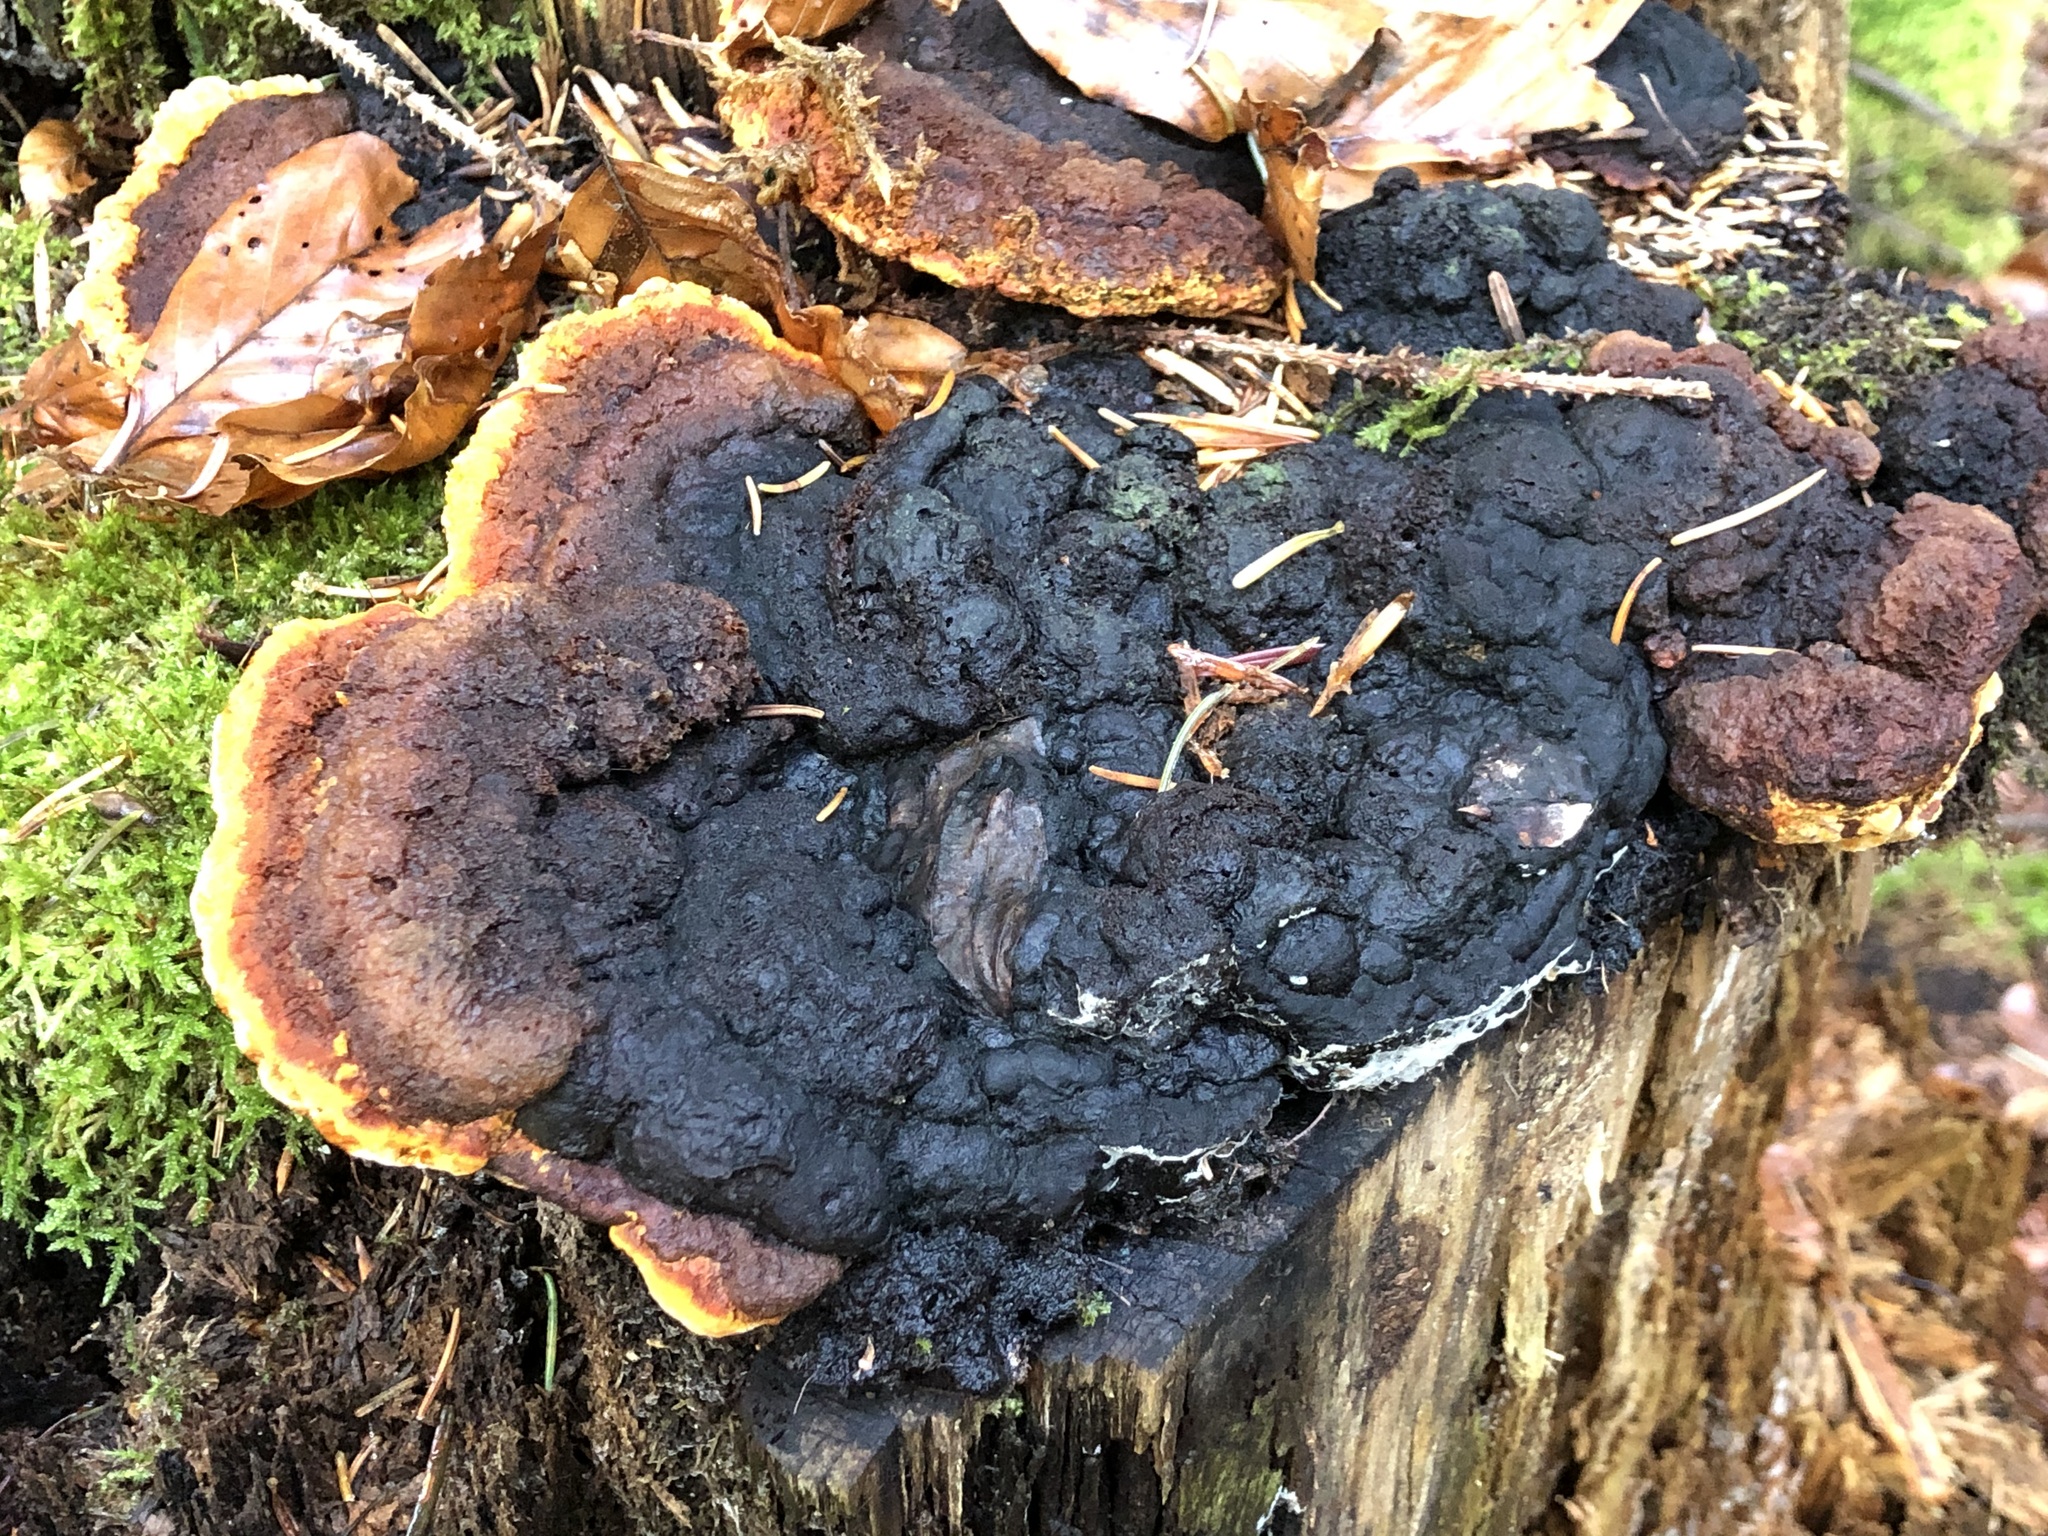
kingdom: Fungi
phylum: Basidiomycota
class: Agaricomycetes
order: Gloeophyllales
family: Gloeophyllaceae
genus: Gloeophyllum
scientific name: Gloeophyllum odoratum
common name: Anise mazegill
